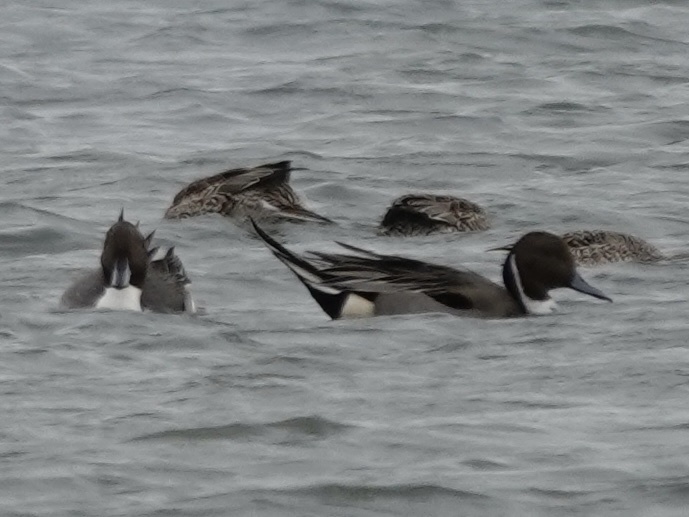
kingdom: Animalia
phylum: Chordata
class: Aves
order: Anseriformes
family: Anatidae
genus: Anas
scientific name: Anas acuta
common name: Northern pintail
